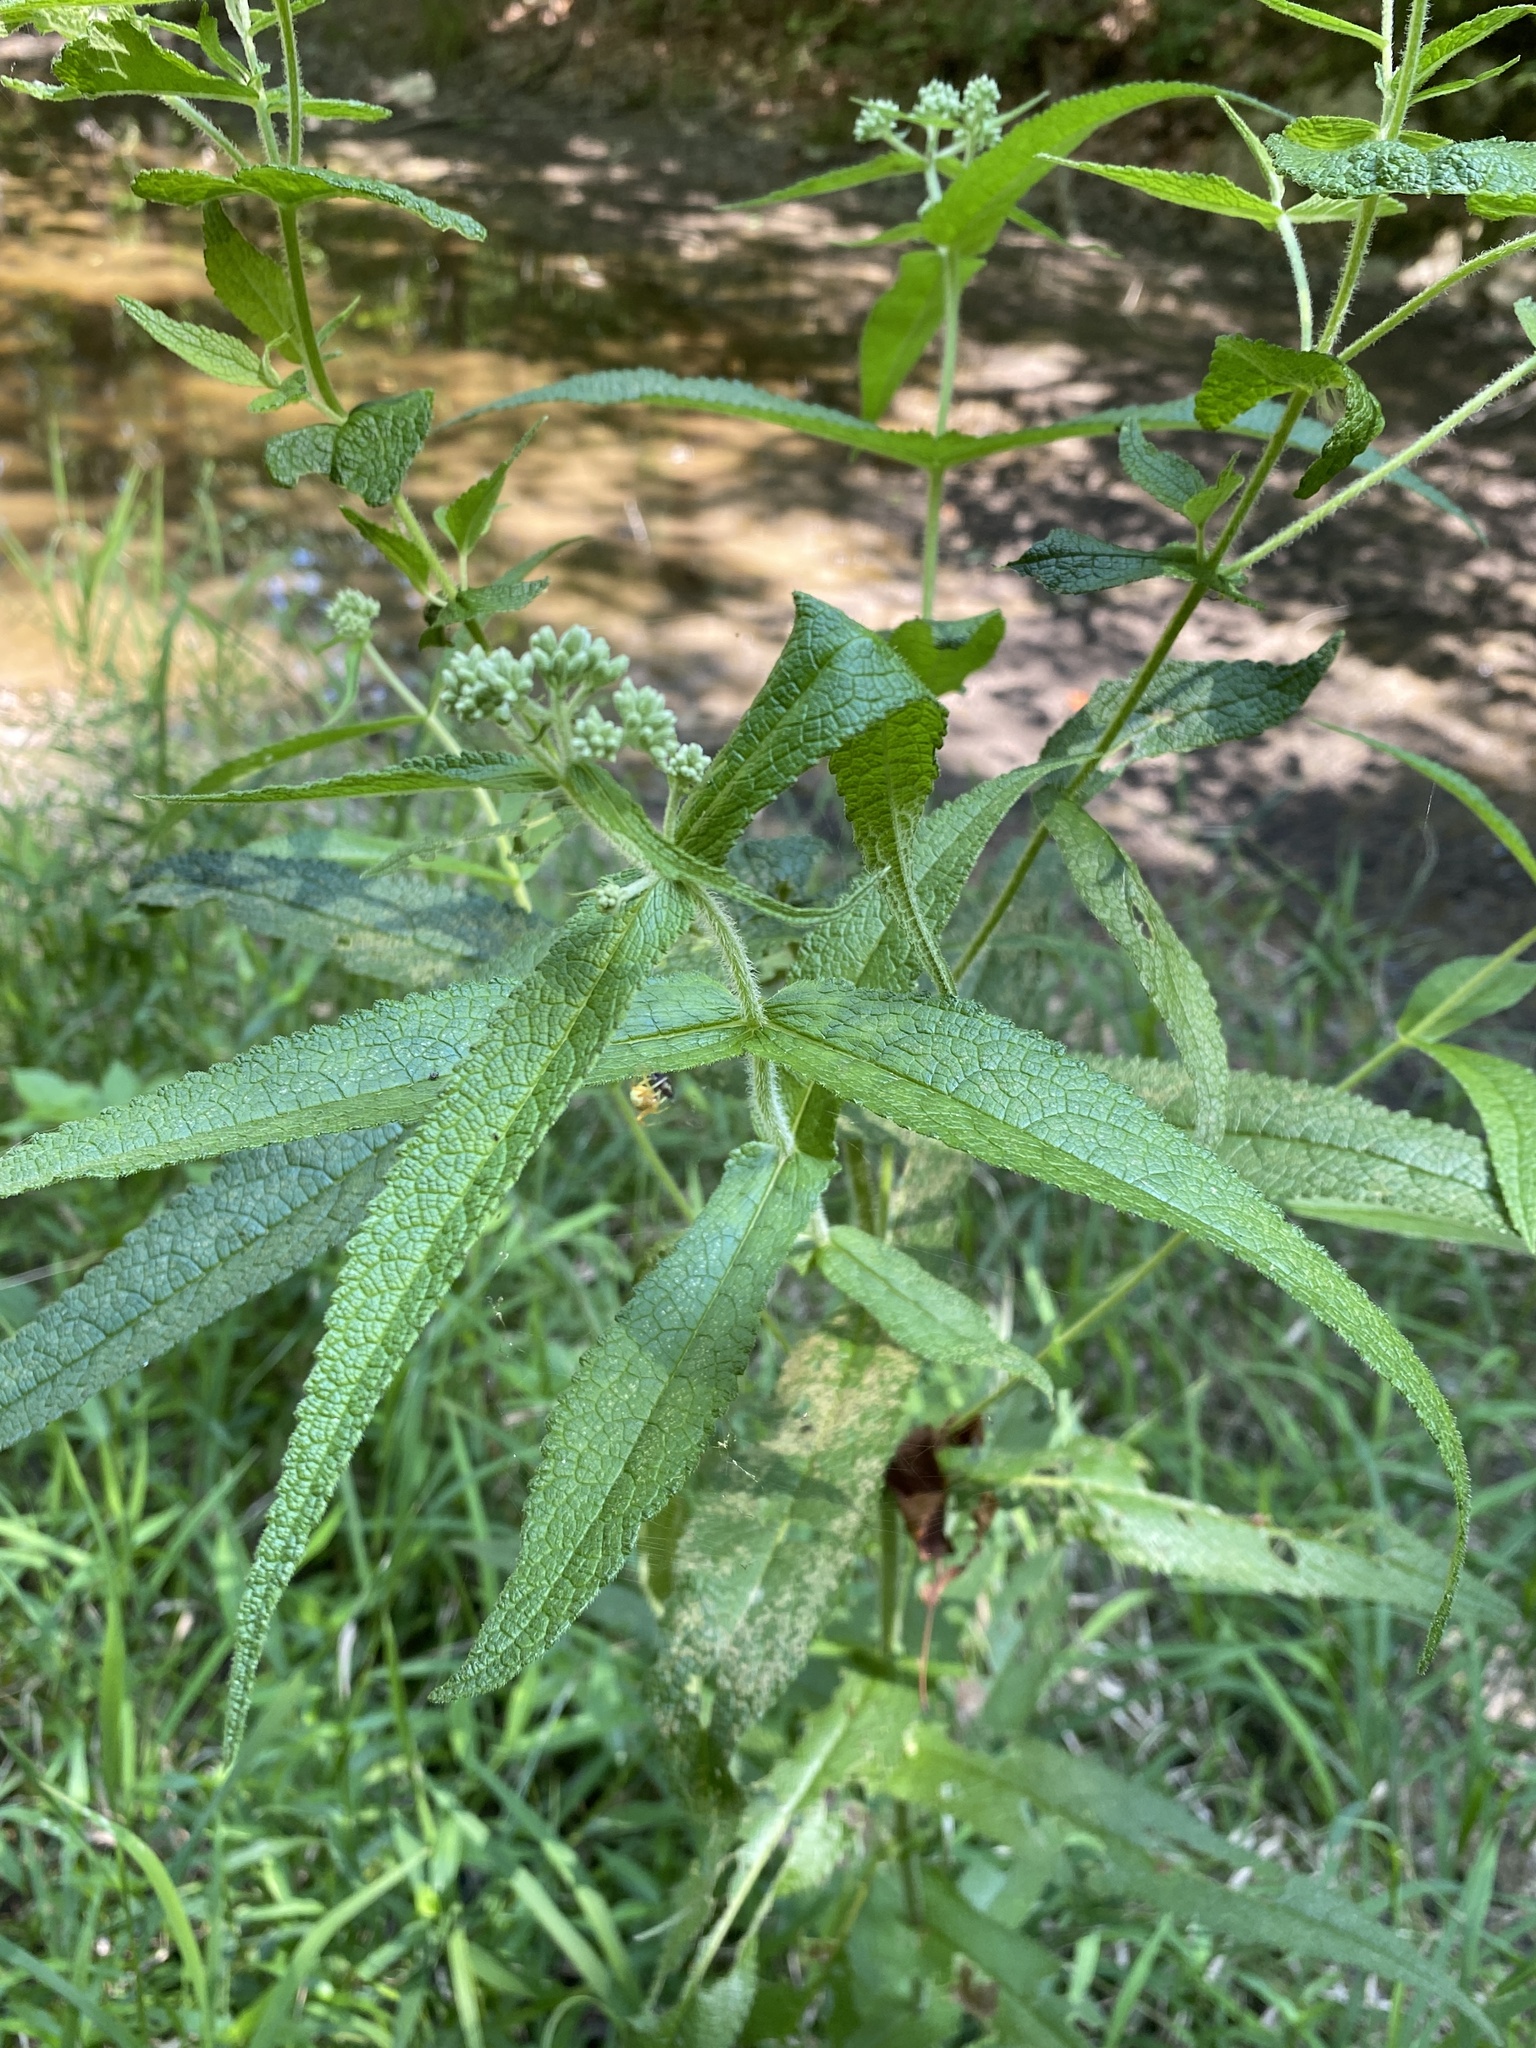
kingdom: Plantae
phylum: Tracheophyta
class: Magnoliopsida
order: Asterales
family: Asteraceae
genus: Eupatorium
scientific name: Eupatorium perfoliatum
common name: Boneset
